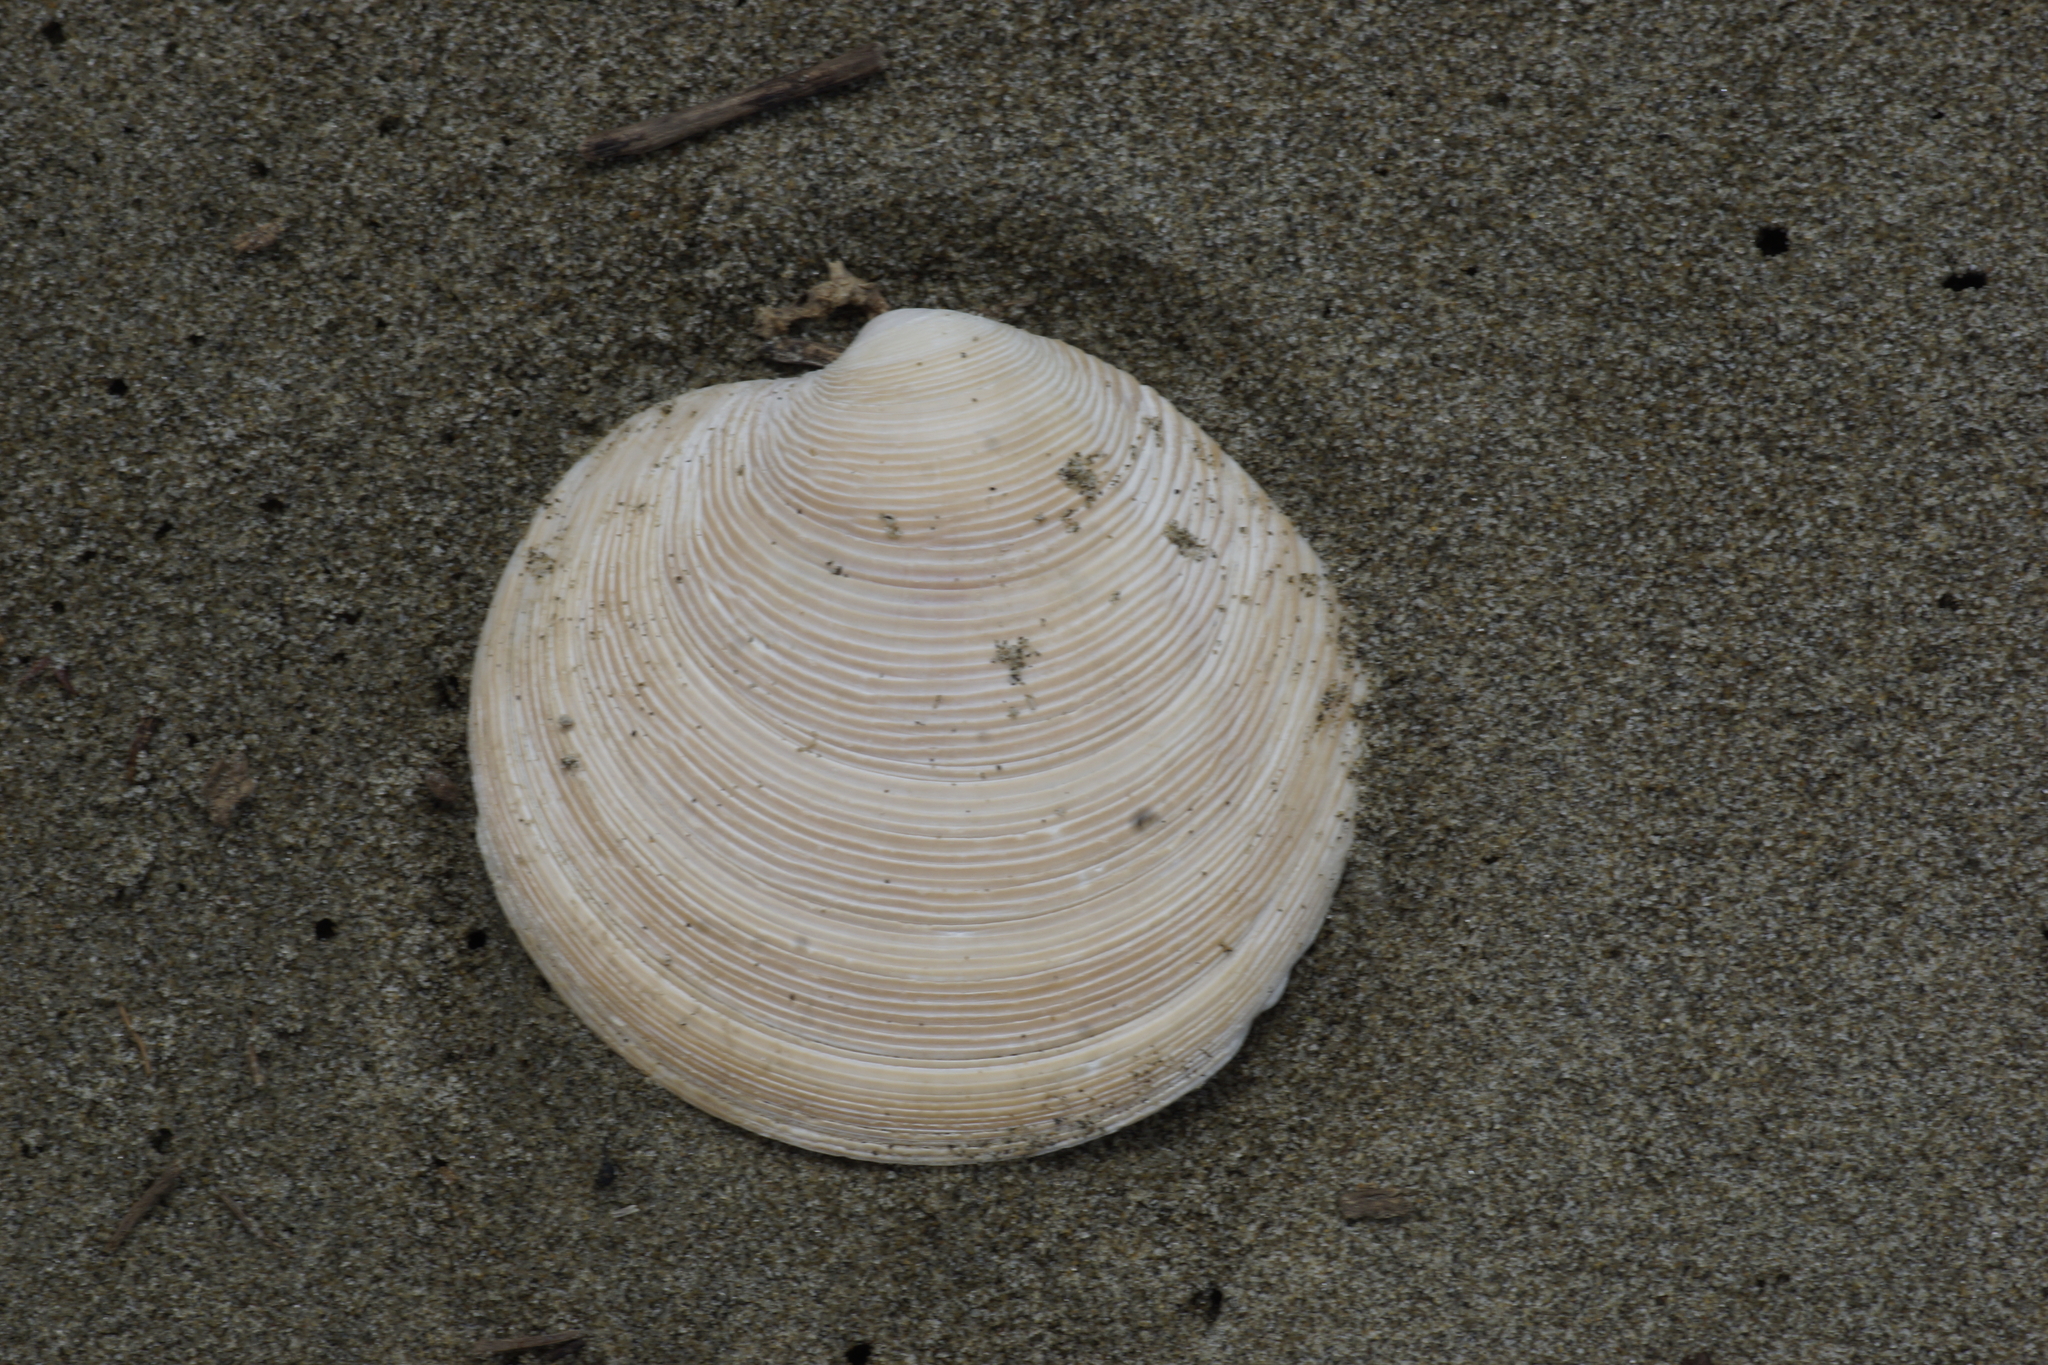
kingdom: Animalia
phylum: Mollusca
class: Bivalvia
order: Venerida
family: Veneridae
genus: Dosinia
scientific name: Dosinia anus
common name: Old-woman dosinia
